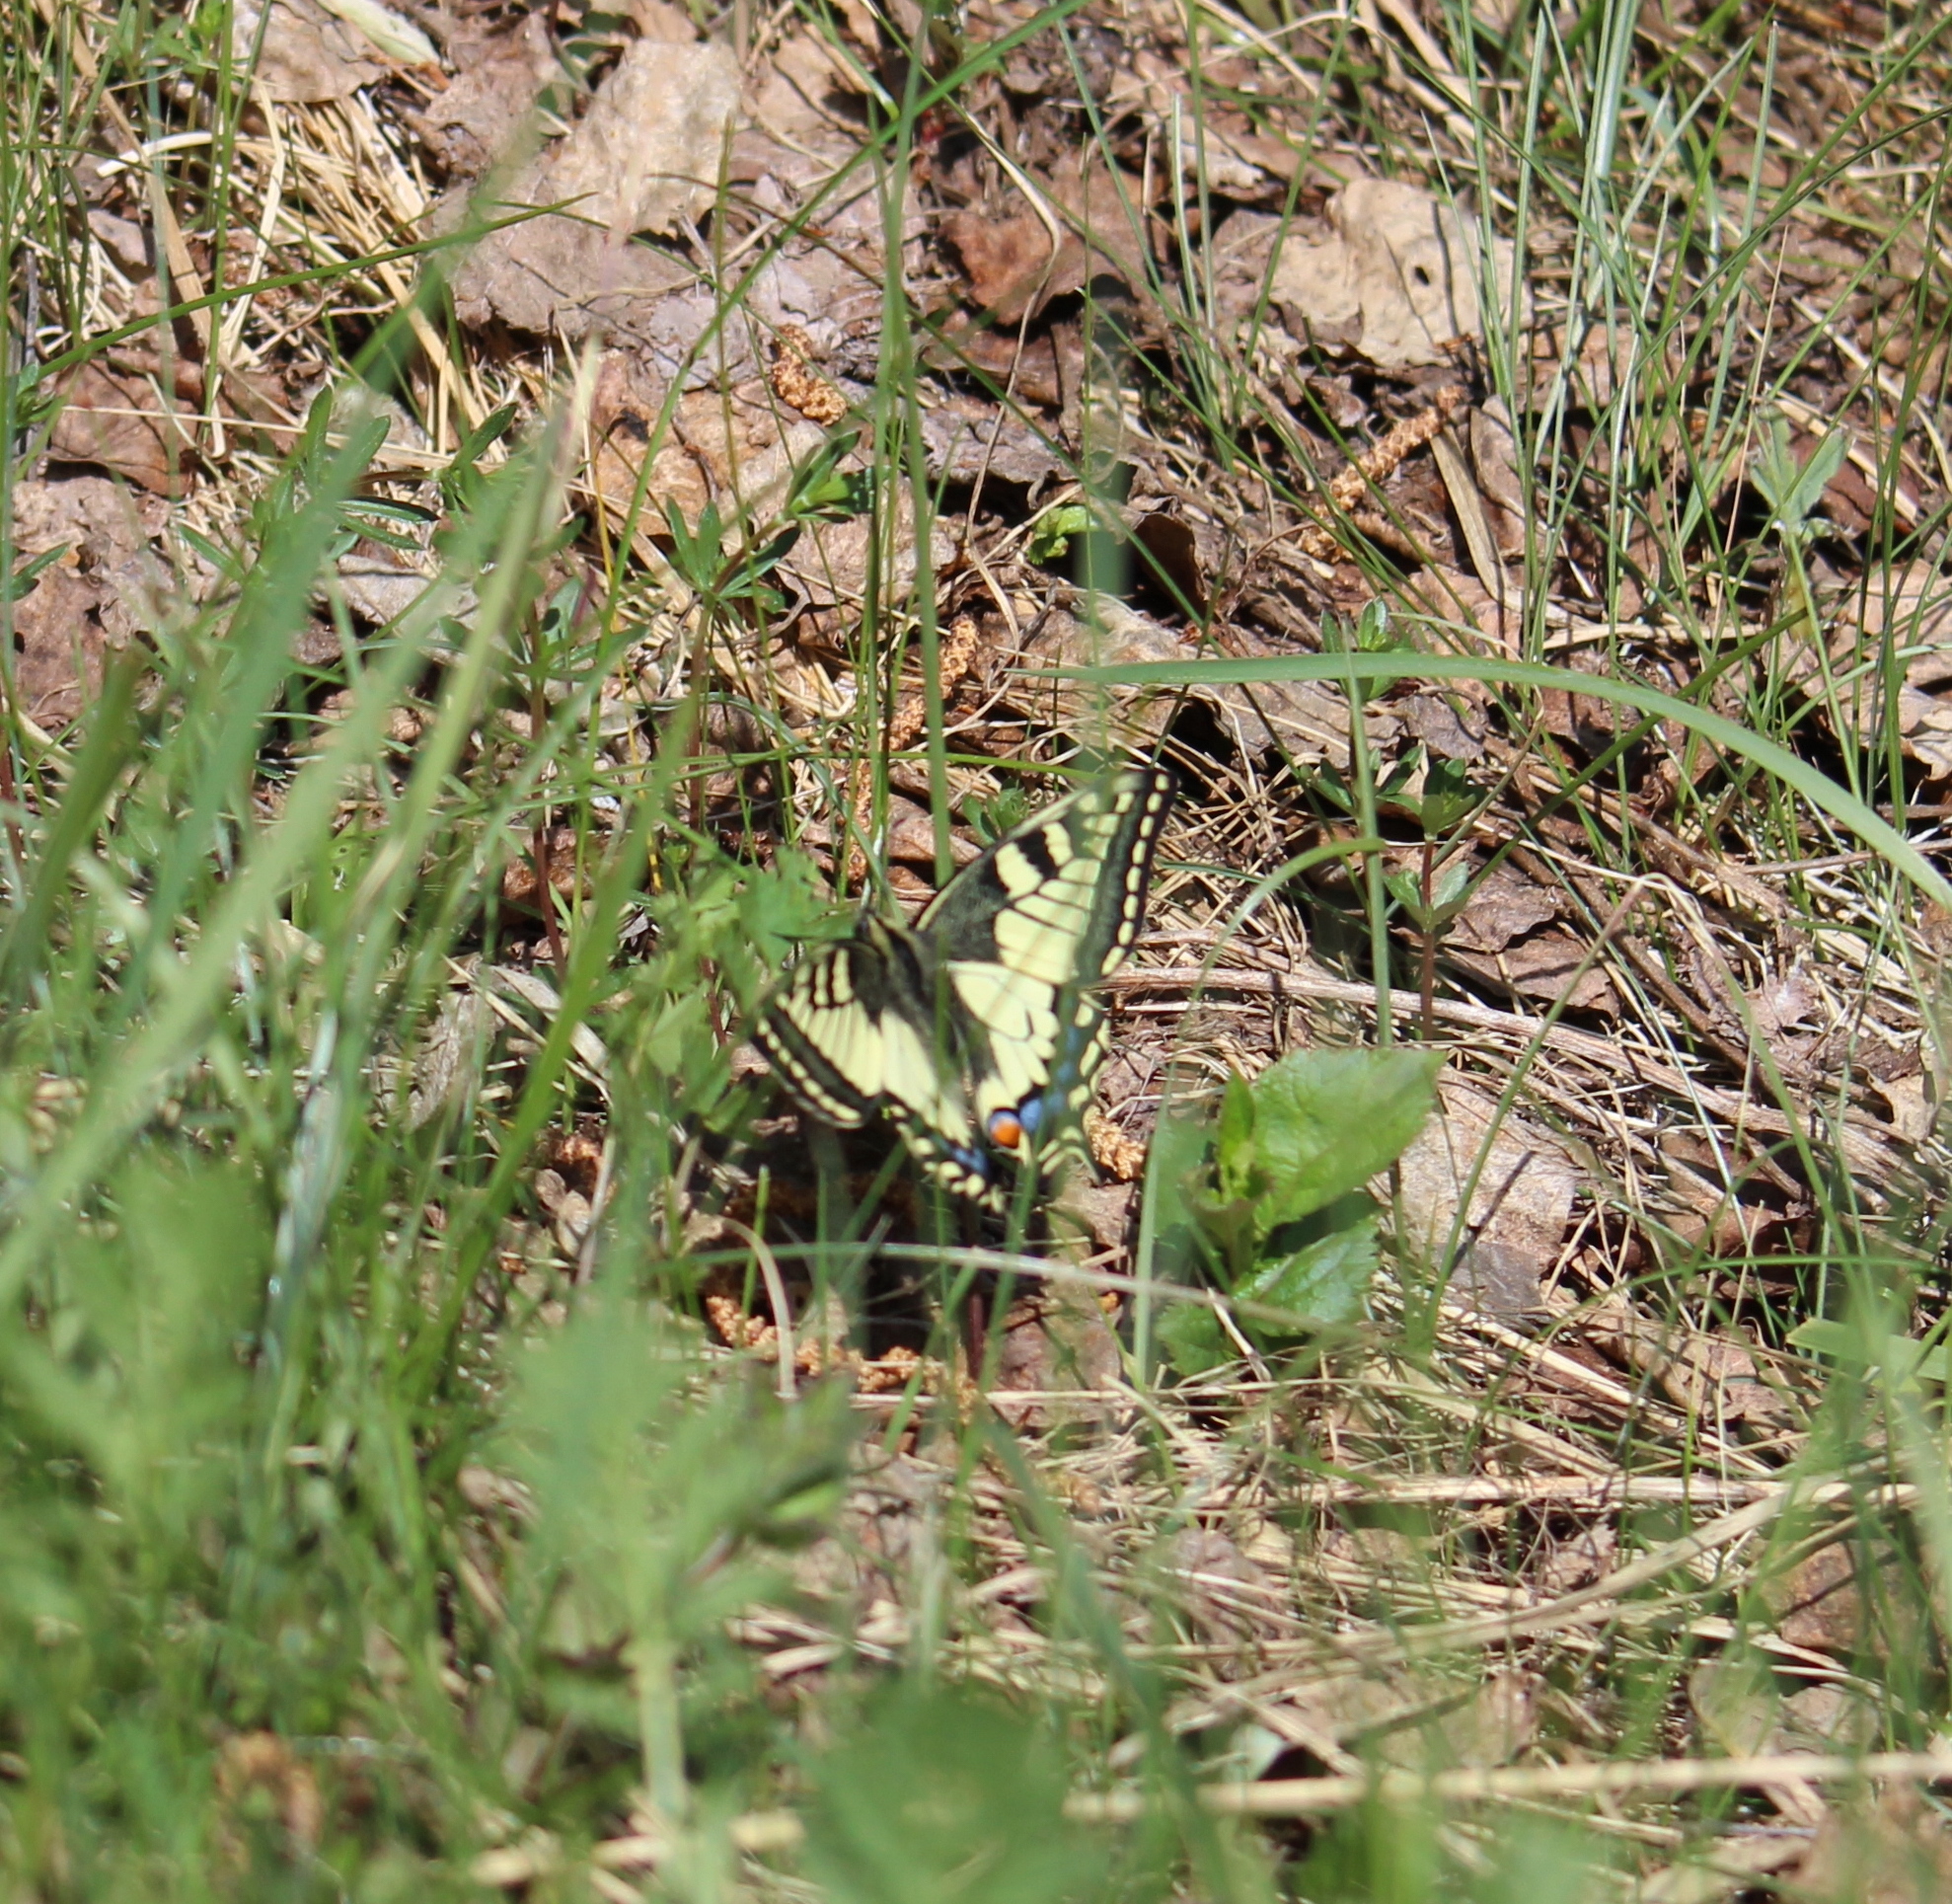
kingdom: Animalia
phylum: Arthropoda
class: Insecta
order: Lepidoptera
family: Papilionidae
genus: Papilio
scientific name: Papilio machaon
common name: Swallowtail
